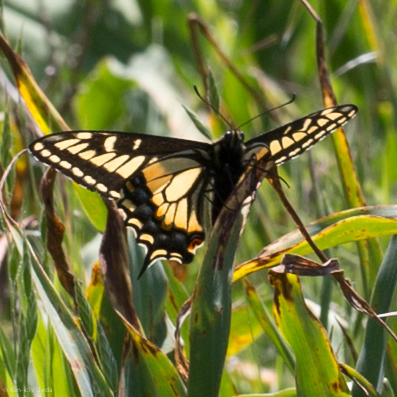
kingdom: Animalia
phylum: Arthropoda
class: Insecta
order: Lepidoptera
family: Papilionidae
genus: Papilio
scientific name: Papilio zelicaon
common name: Anise swallowtail
